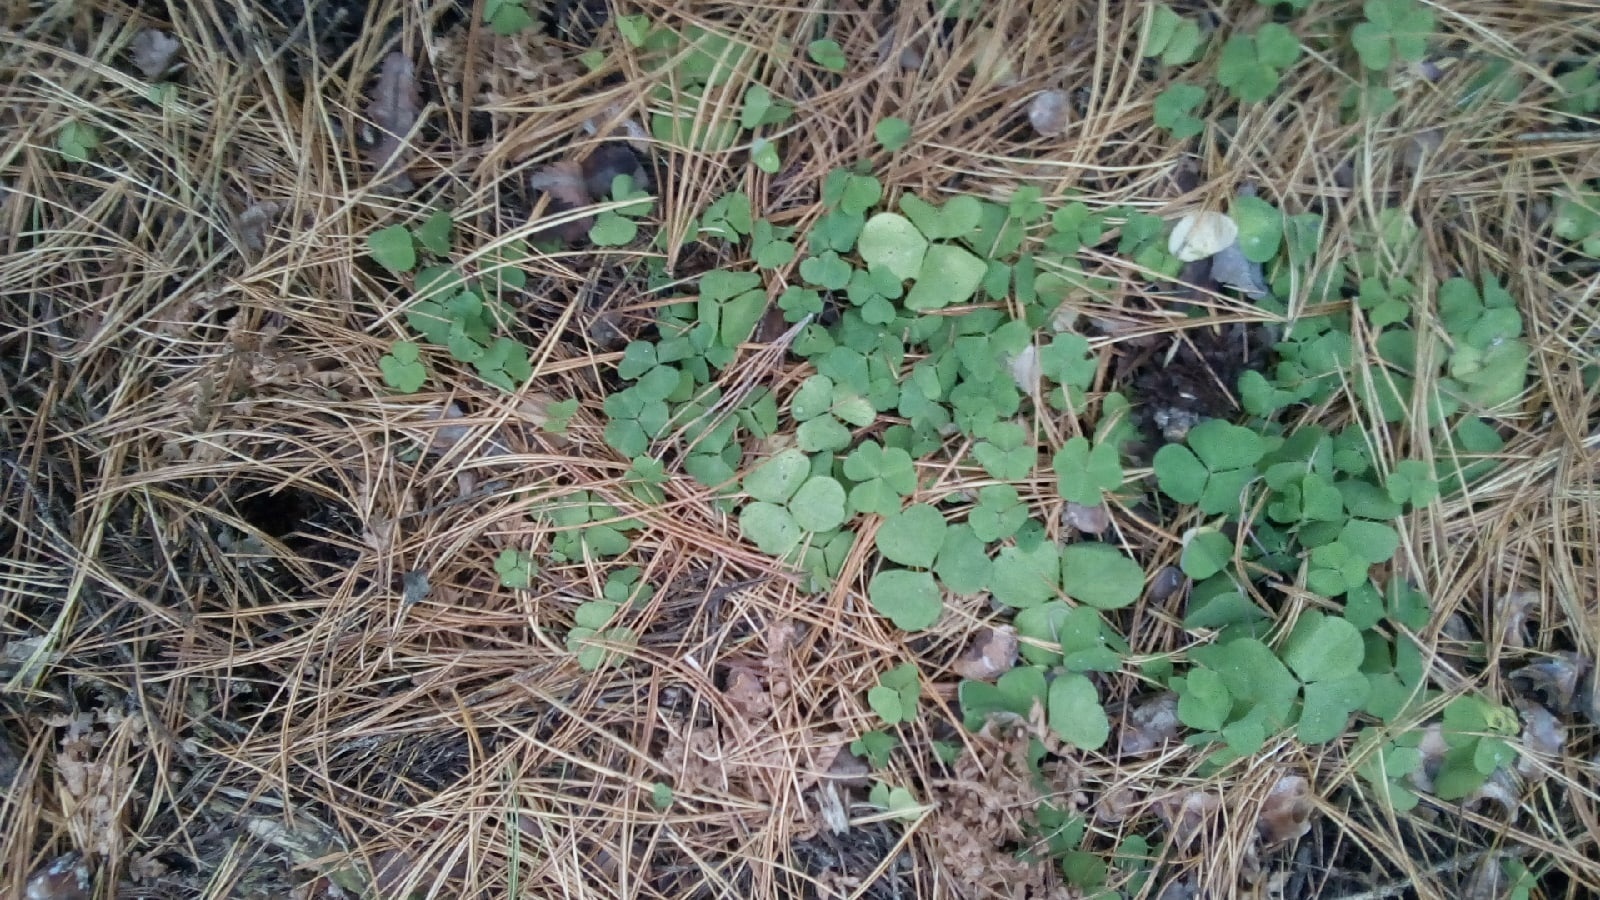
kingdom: Plantae
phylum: Tracheophyta
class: Magnoliopsida
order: Oxalidales
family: Oxalidaceae
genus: Oxalis
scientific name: Oxalis acetosella
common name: Wood-sorrel
